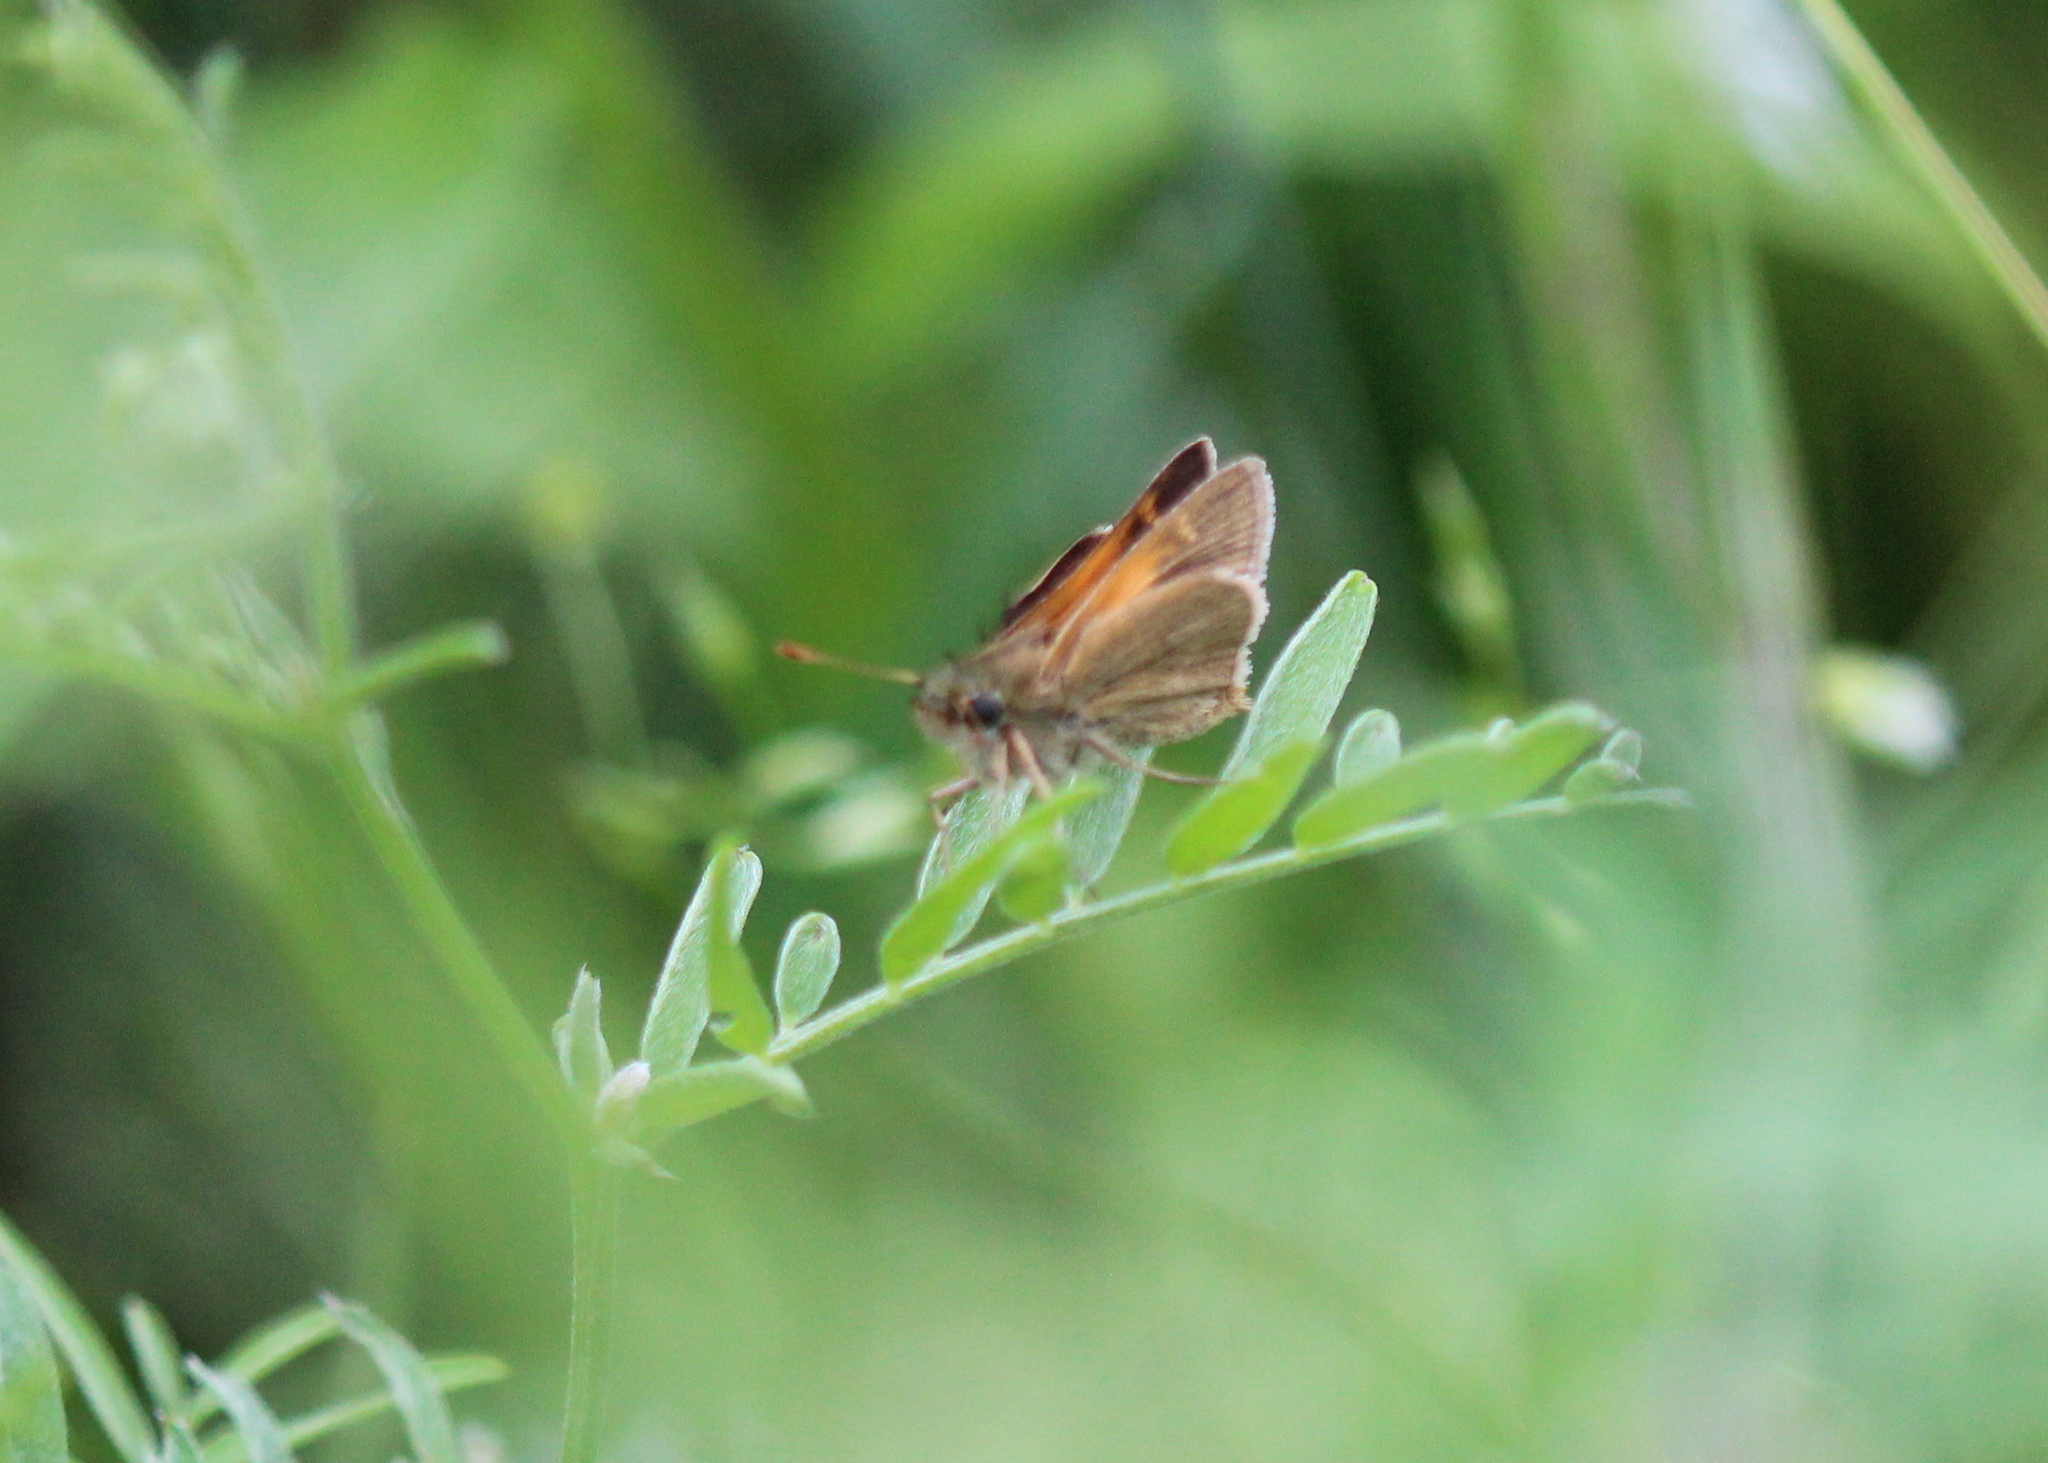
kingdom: Animalia
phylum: Arthropoda
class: Insecta
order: Lepidoptera
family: Hesperiidae
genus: Polites
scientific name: Polites themistocles
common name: Tawny-edged skipper
